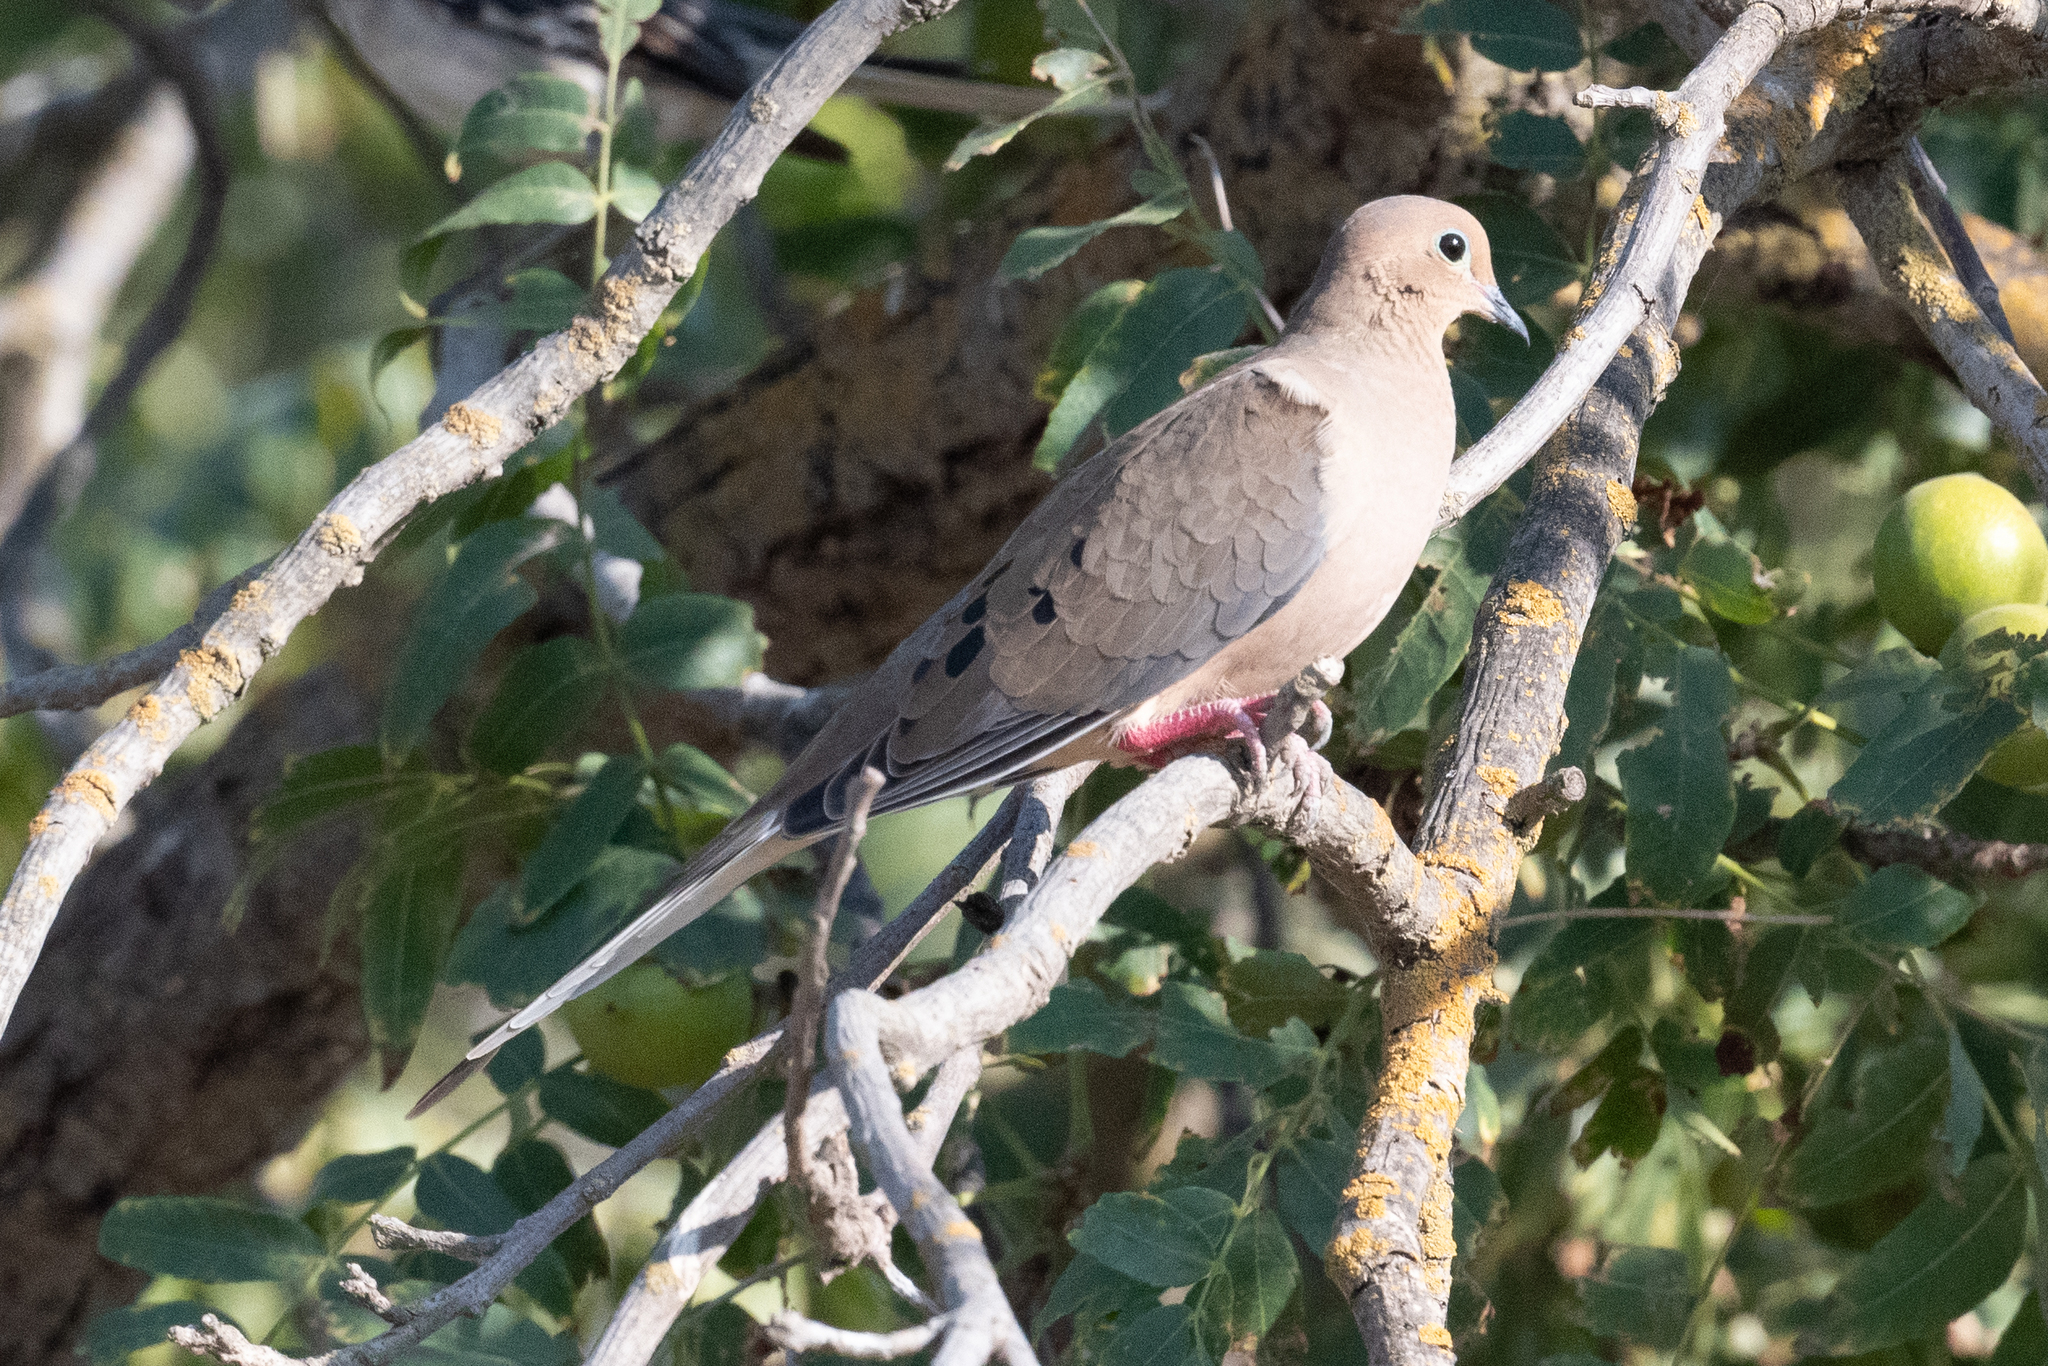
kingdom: Animalia
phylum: Chordata
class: Aves
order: Columbiformes
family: Columbidae
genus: Zenaida
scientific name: Zenaida macroura
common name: Mourning dove
